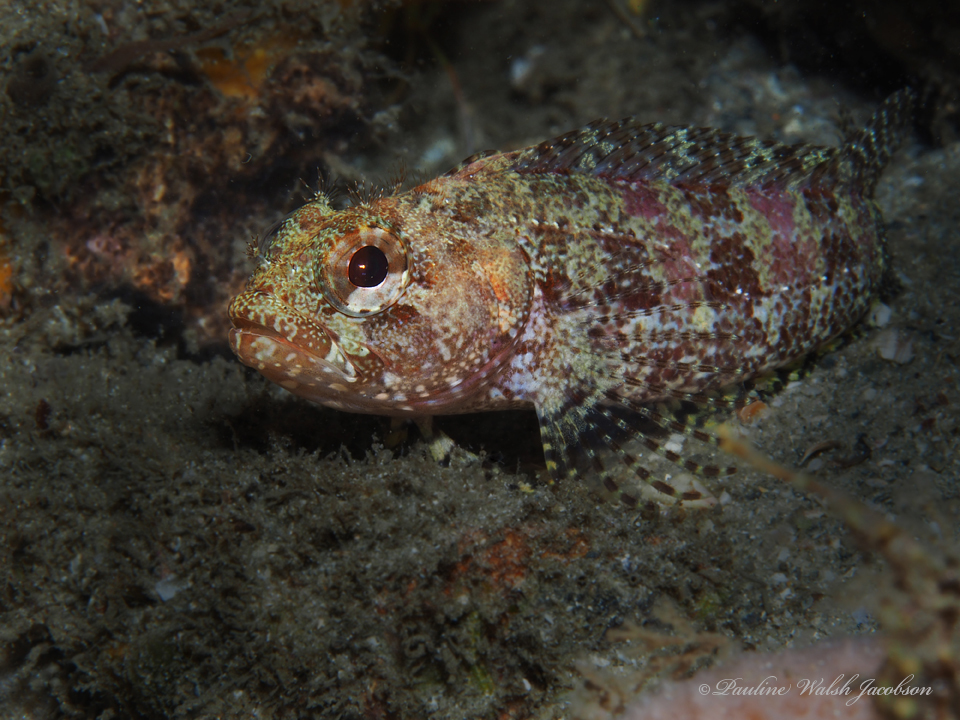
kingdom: Animalia
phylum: Chordata
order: Perciformes
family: Labrisomidae
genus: Gobioclinus
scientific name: Gobioclinus kalisherae
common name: Downy blenny
